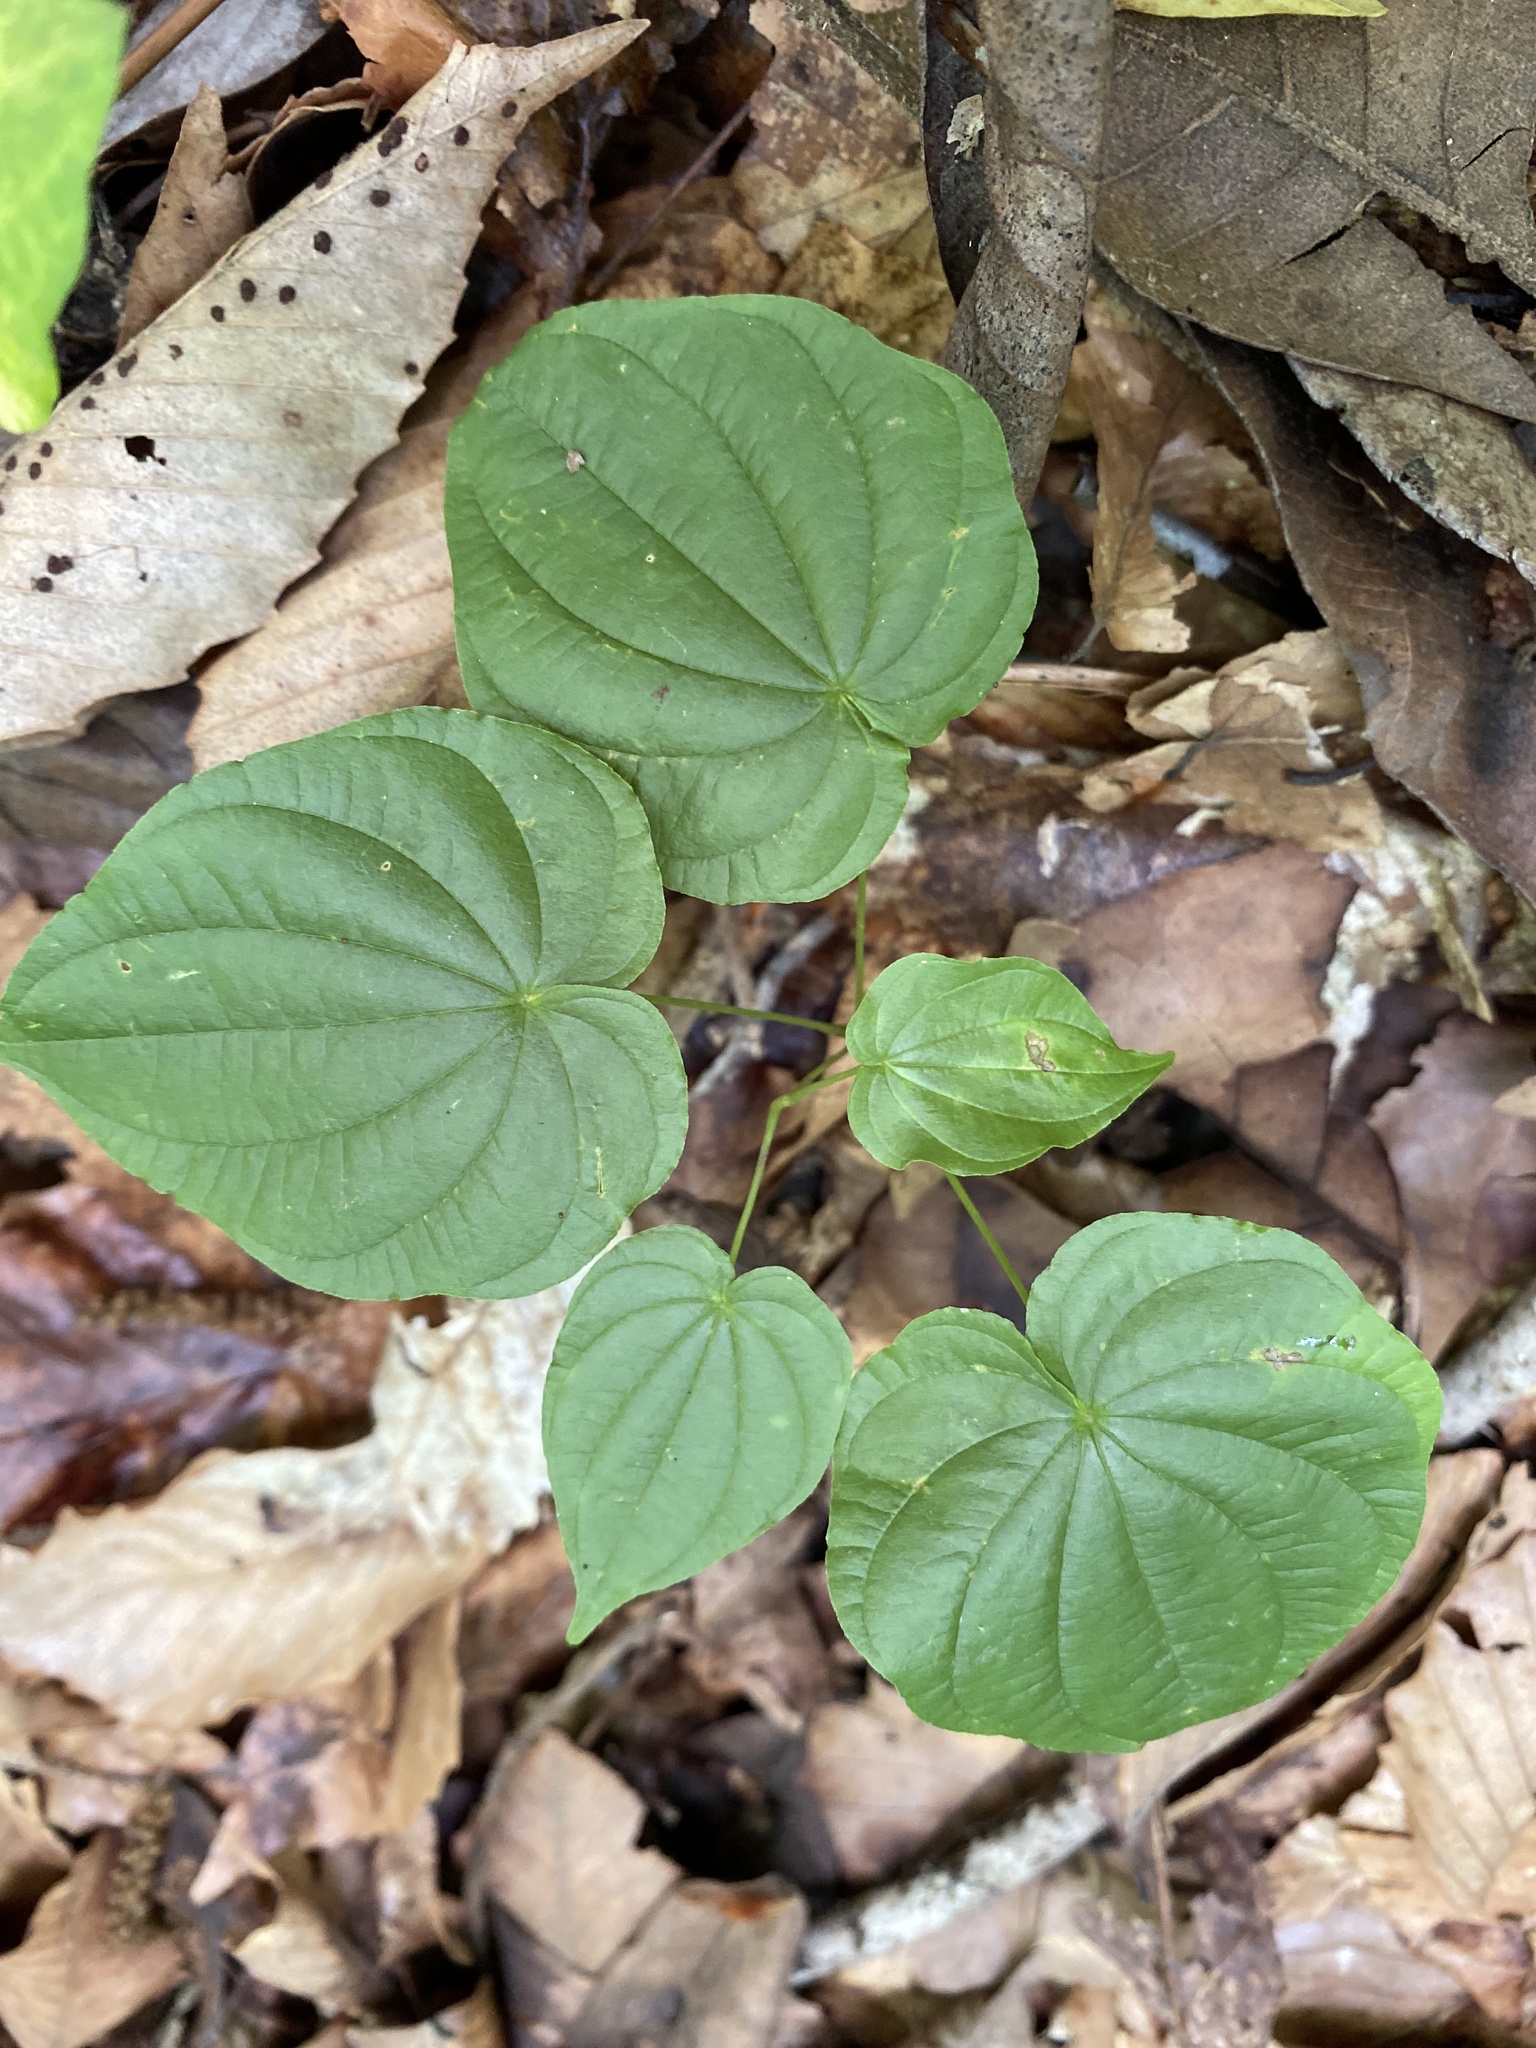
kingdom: Plantae
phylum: Tracheophyta
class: Liliopsida
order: Dioscoreales
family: Dioscoreaceae
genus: Dioscorea
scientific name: Dioscorea villosa
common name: Wild yam
